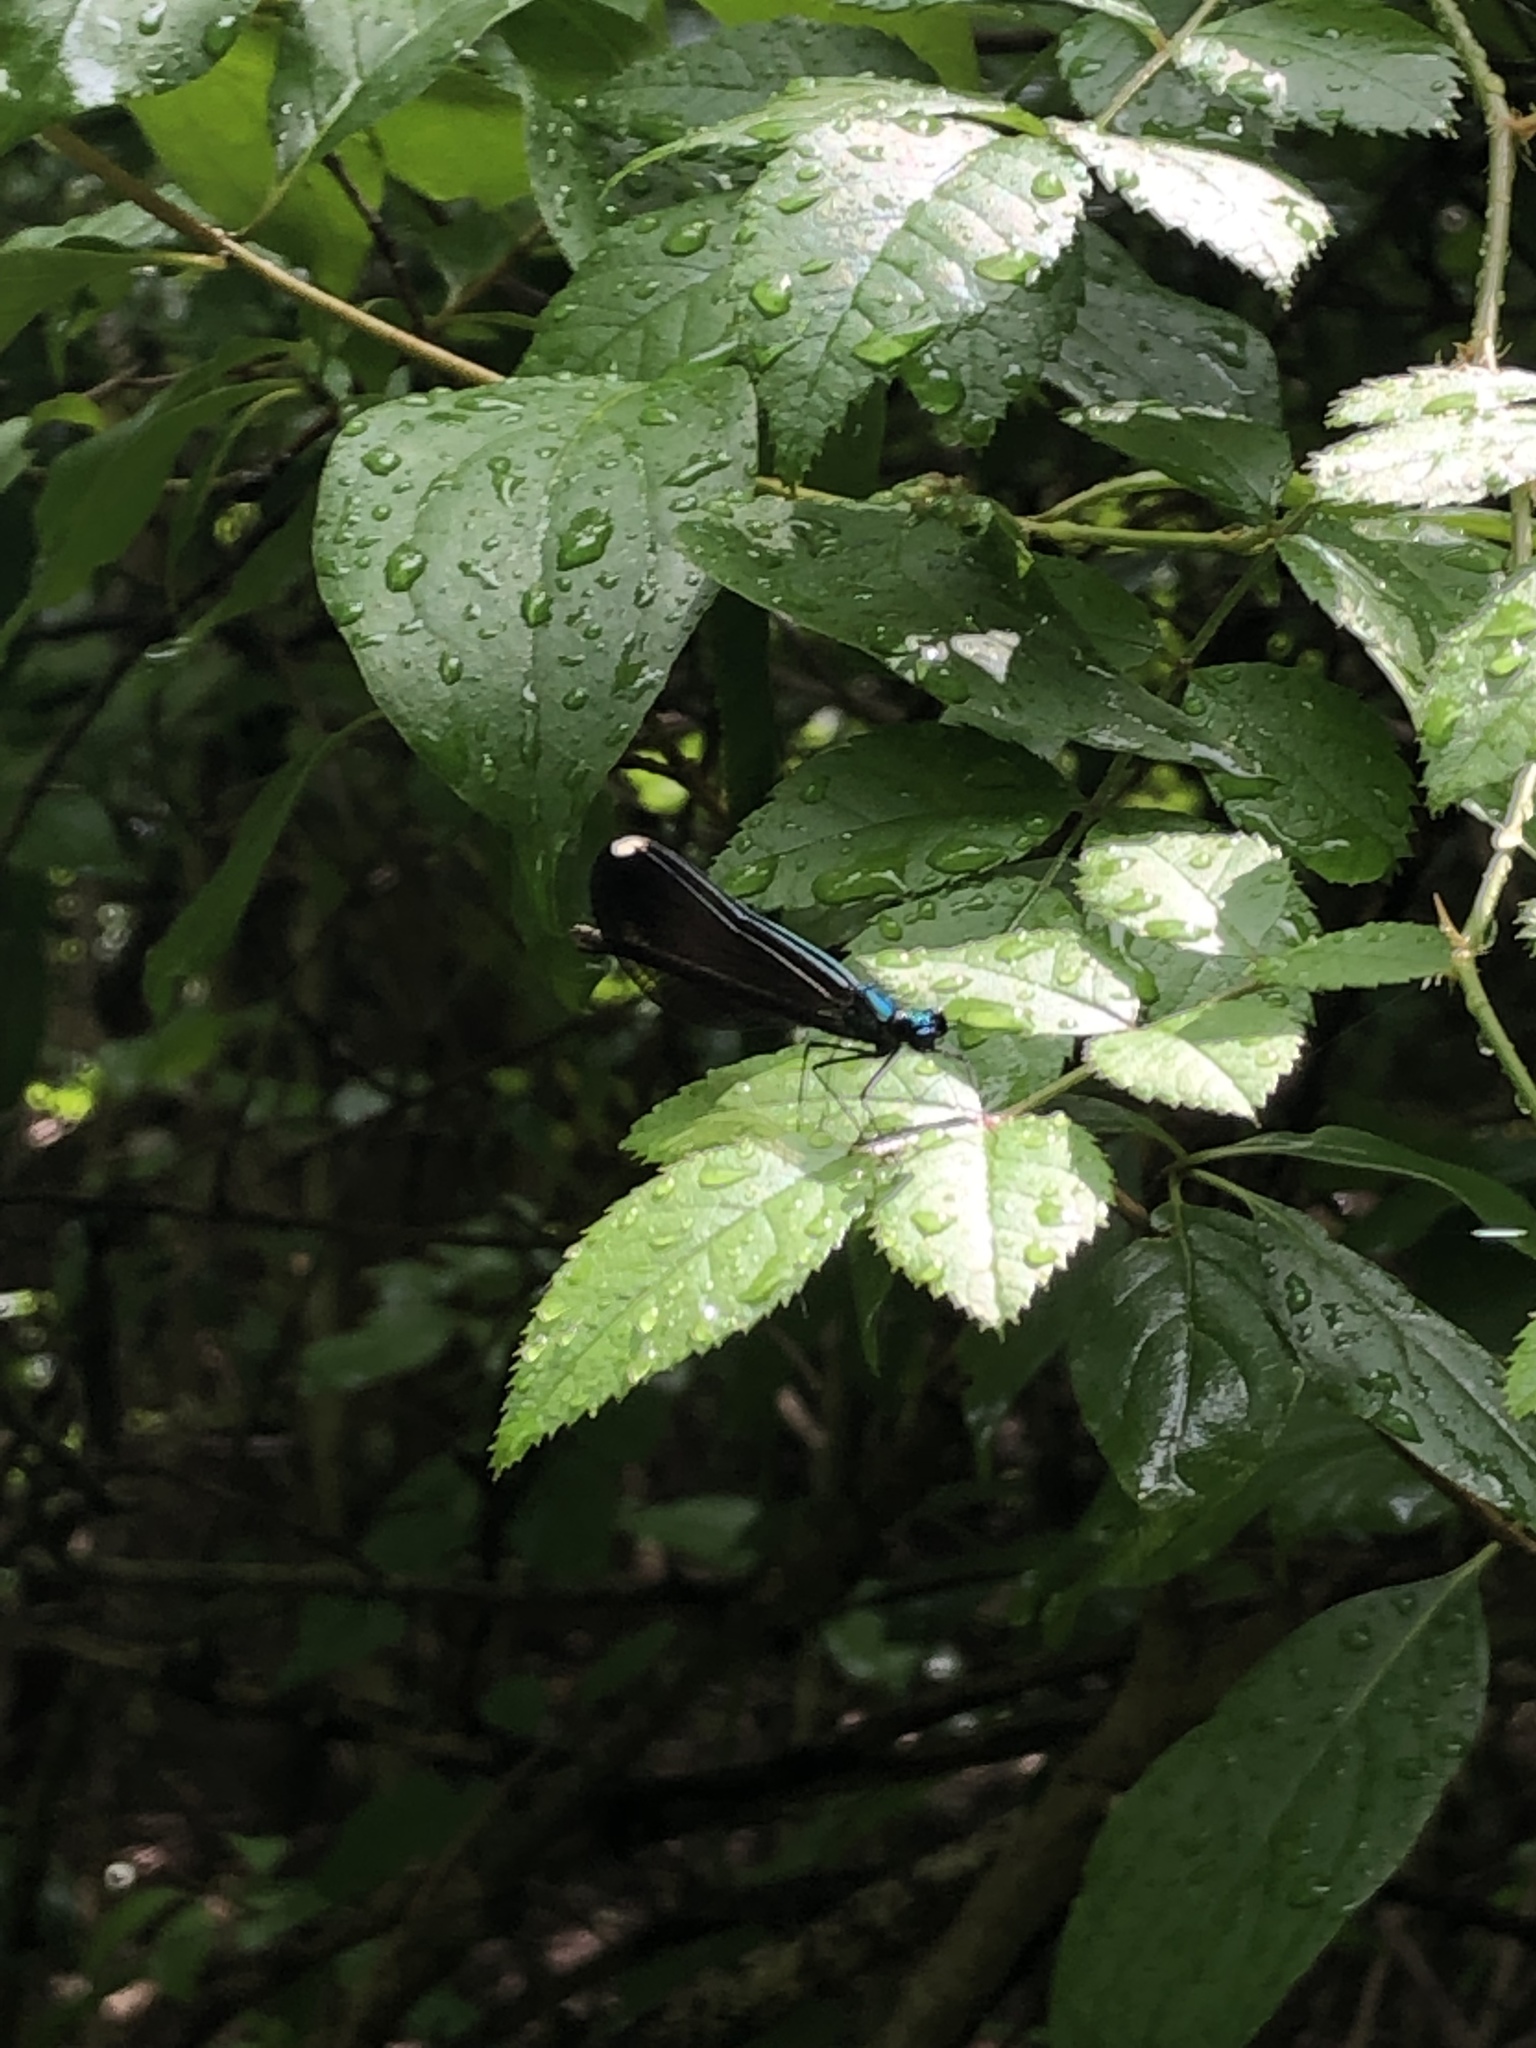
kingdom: Animalia
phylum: Arthropoda
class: Insecta
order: Odonata
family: Calopterygidae
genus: Calopteryx
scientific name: Calopteryx maculata
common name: Ebony jewelwing
